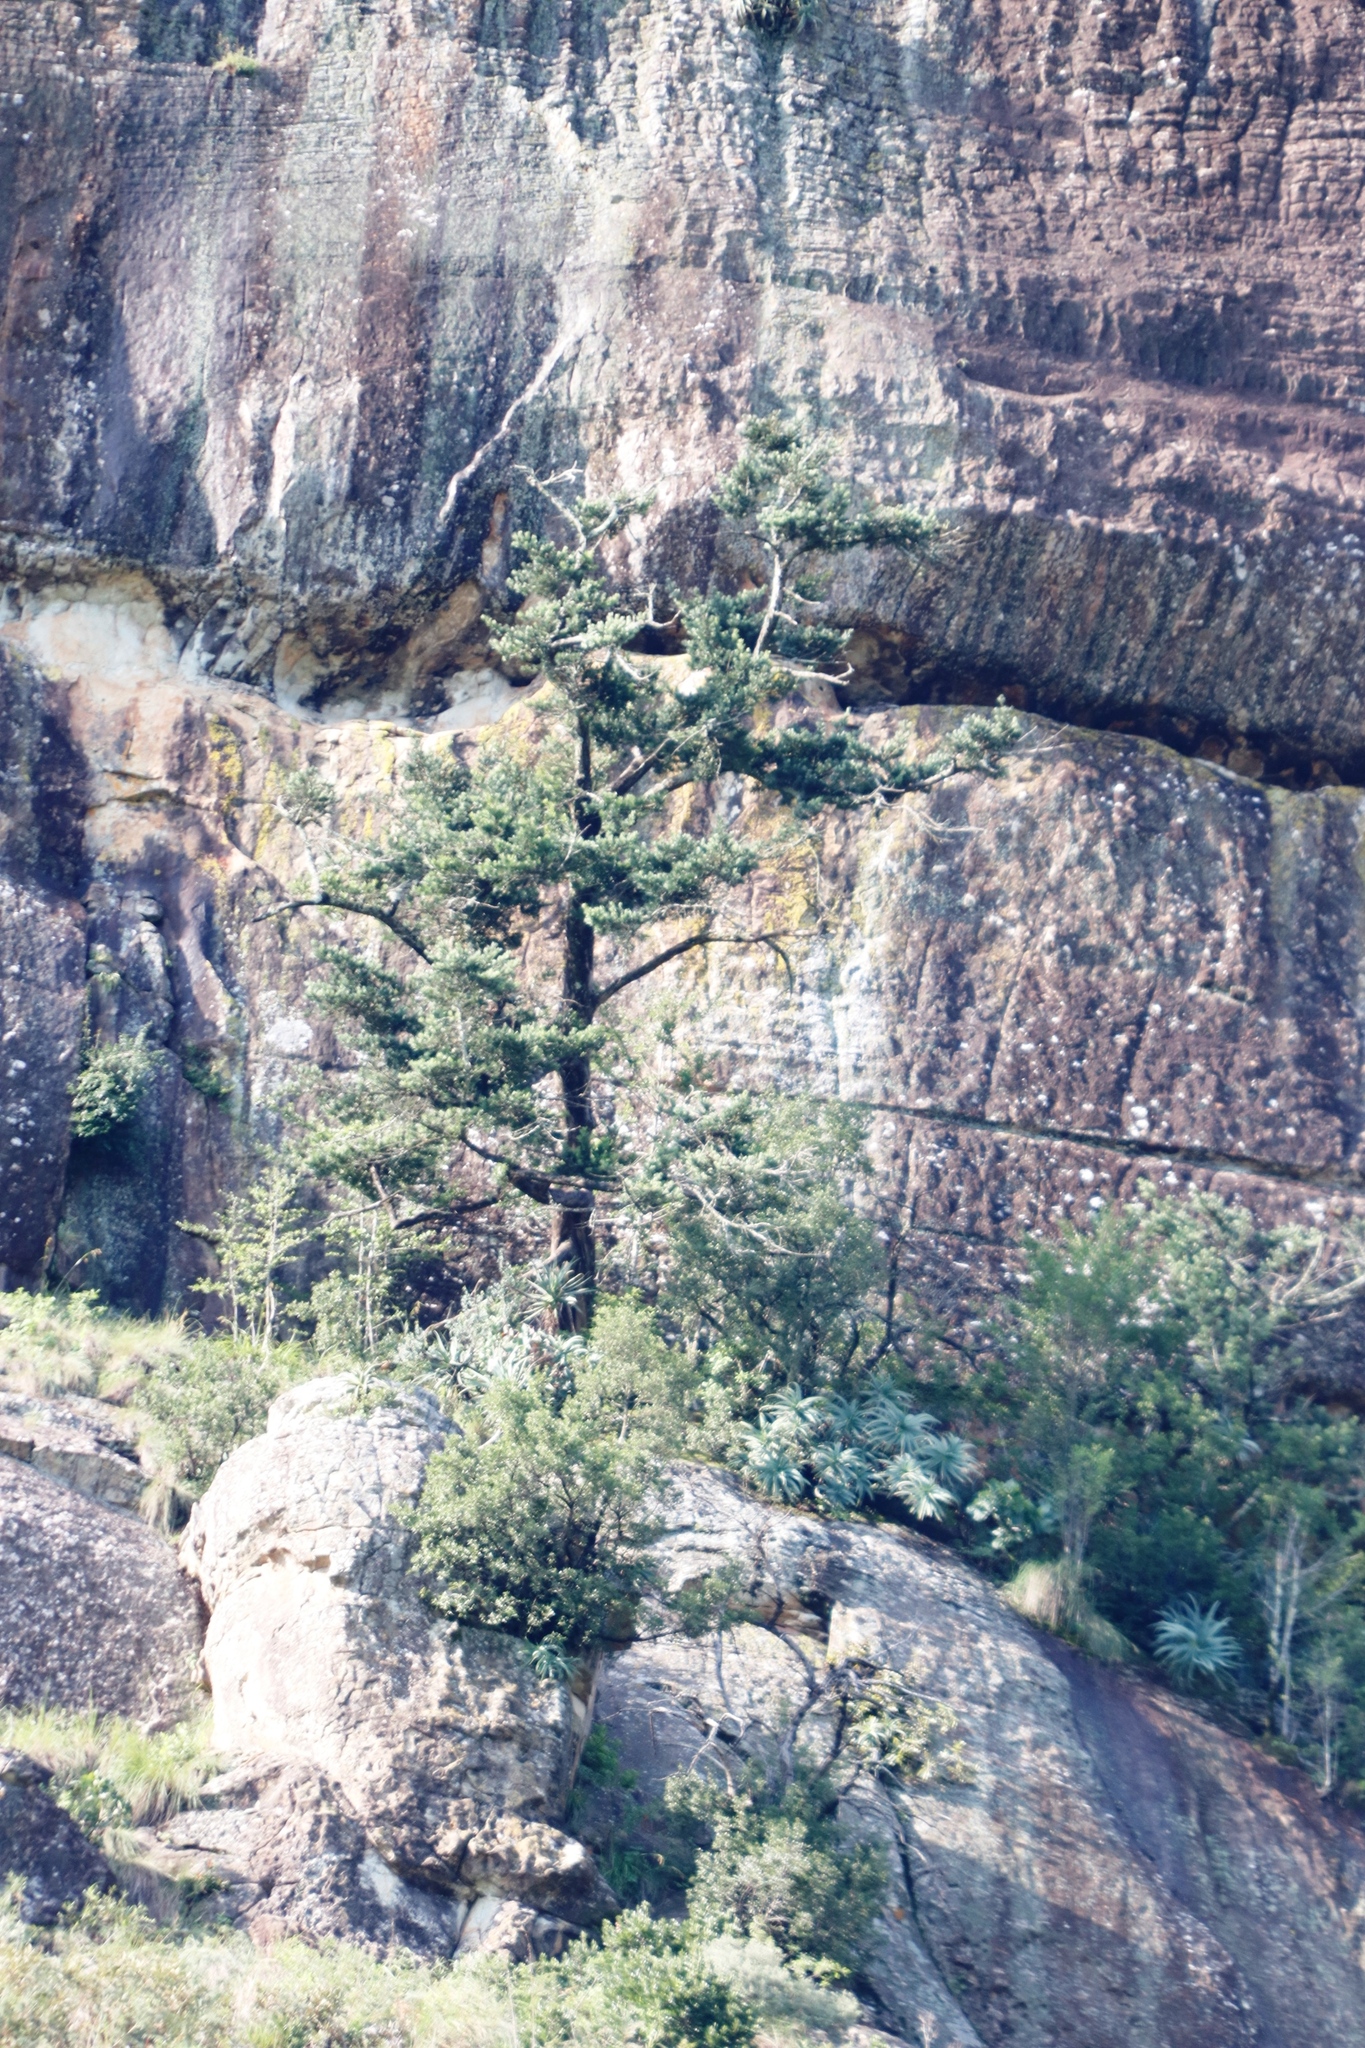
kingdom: Plantae
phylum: Tracheophyta
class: Pinopsida
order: Pinales
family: Podocarpaceae
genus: Podocarpus
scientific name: Podocarpus latifolius
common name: True yellowwood
